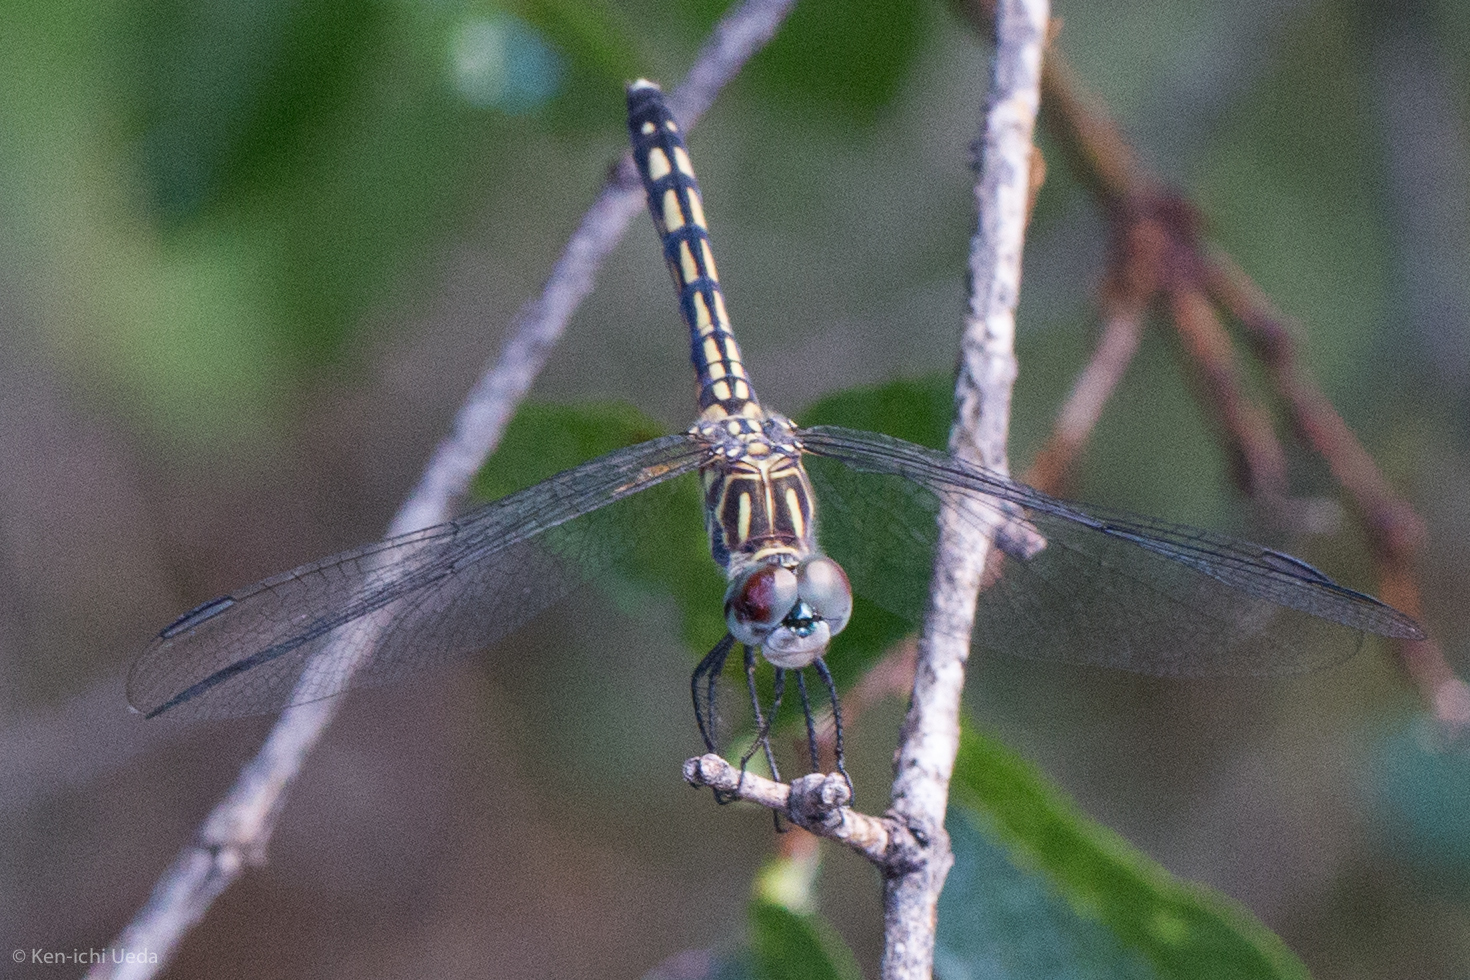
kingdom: Animalia
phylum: Arthropoda
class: Insecta
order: Odonata
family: Libellulidae
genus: Pachydiplax
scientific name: Pachydiplax longipennis
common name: Blue dasher
